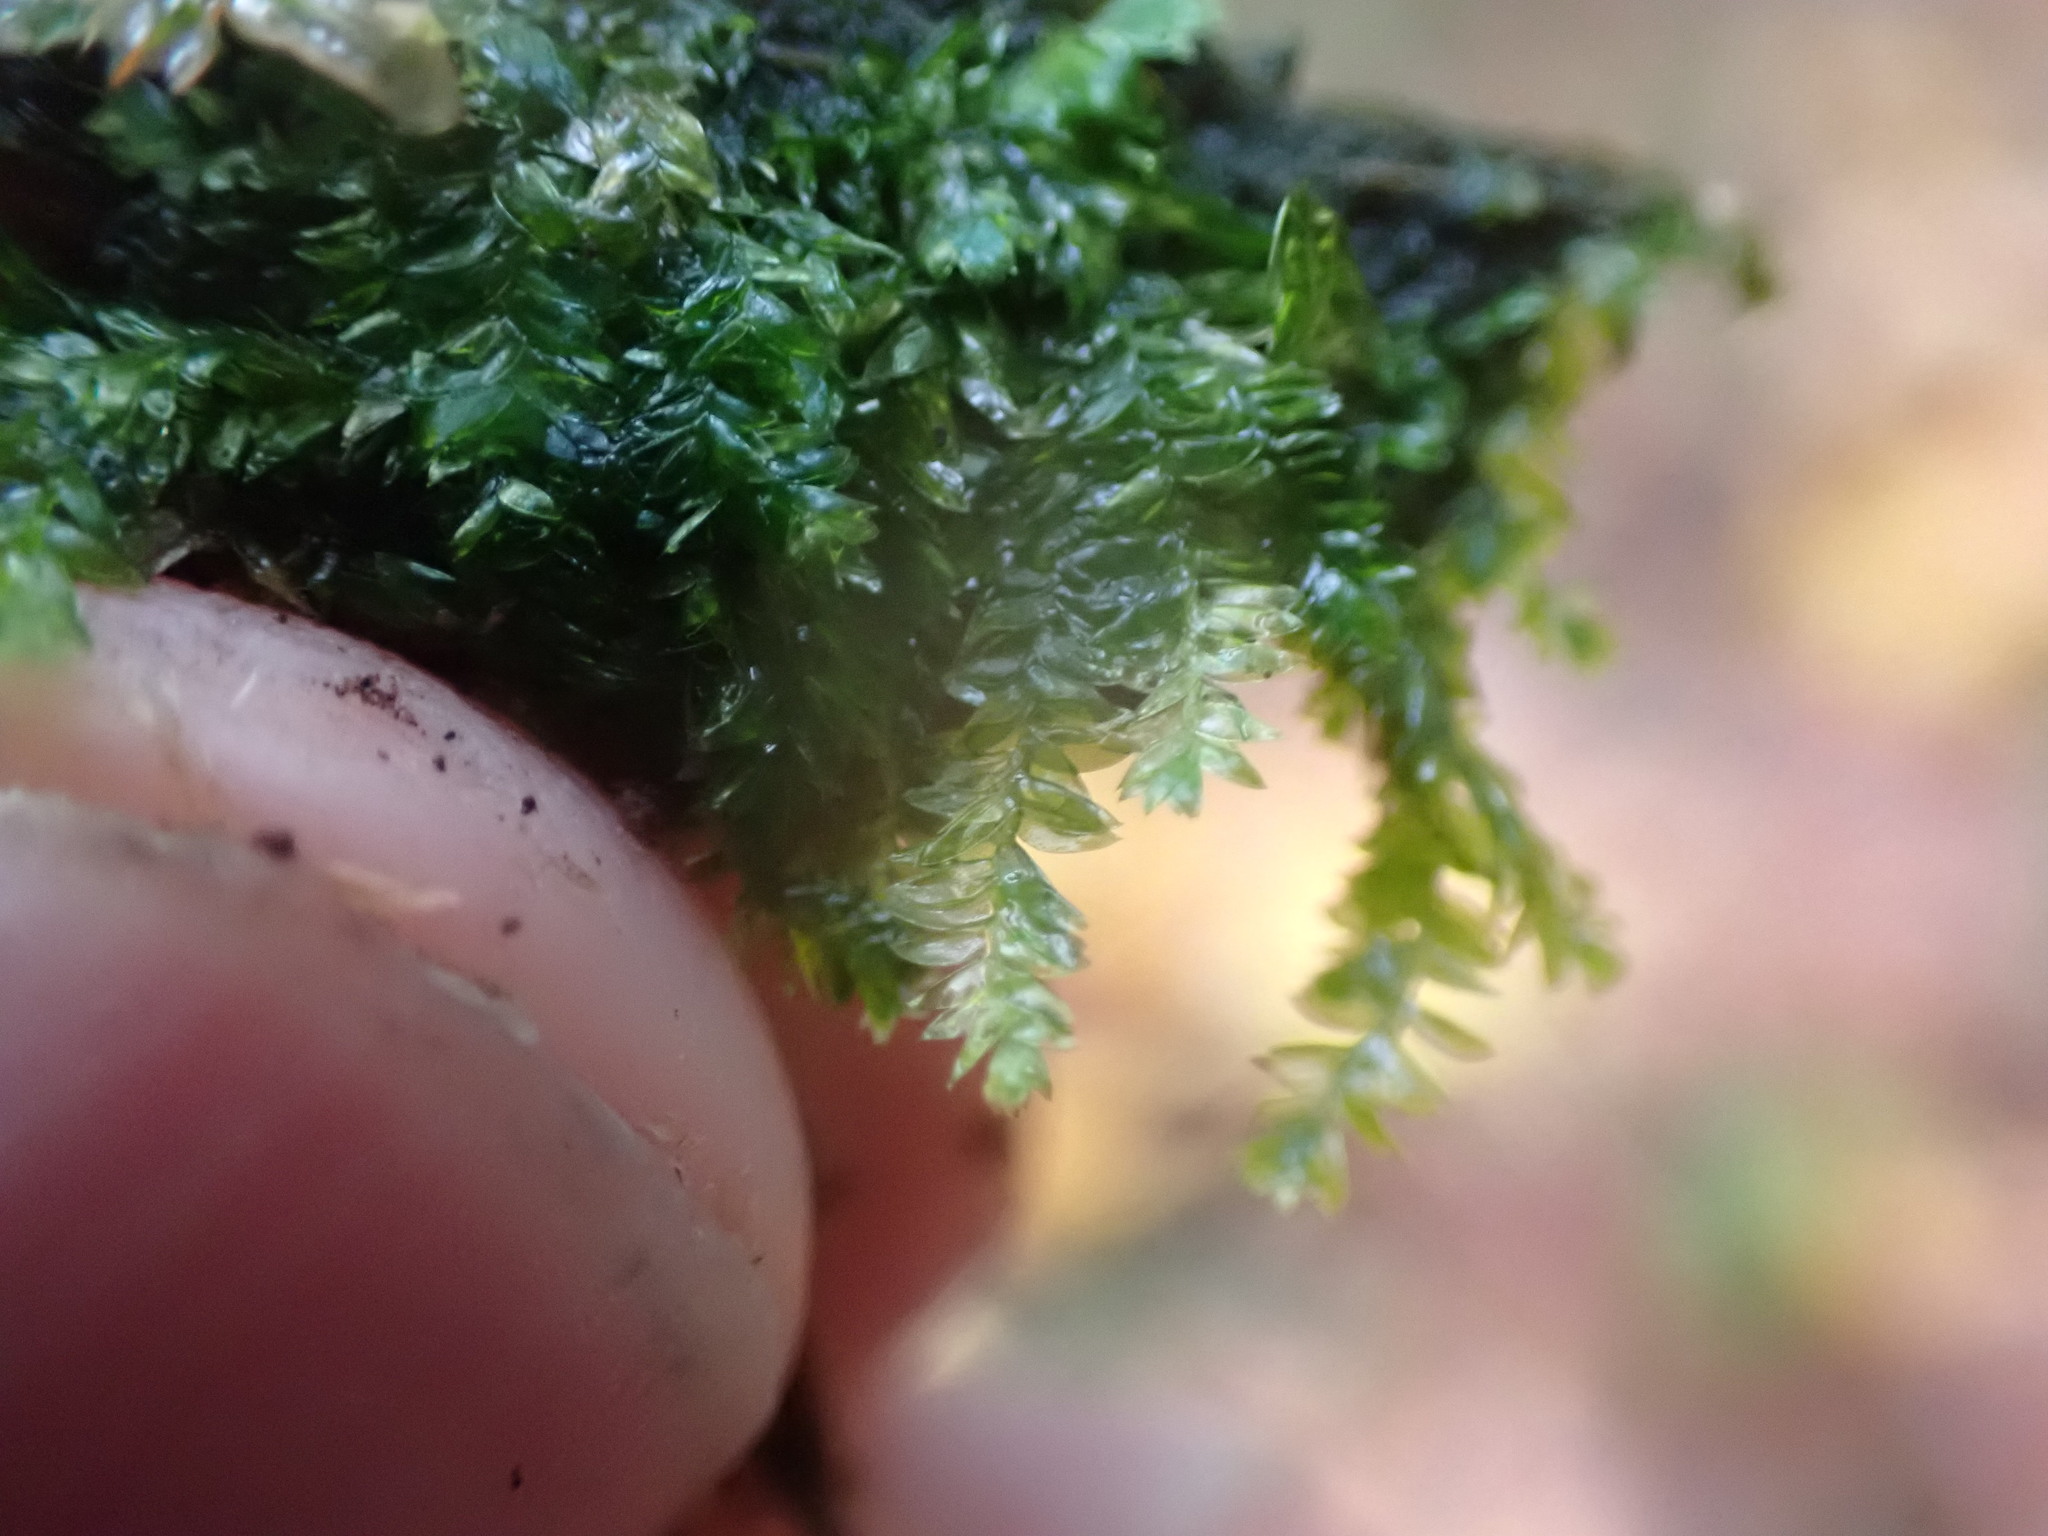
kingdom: Plantae
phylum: Bryophyta
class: Bryopsida
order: Hypnales
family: Plagiotheciaceae
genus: Plagiothecium
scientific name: Plagiothecium denticulatum
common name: Dented silk moss
